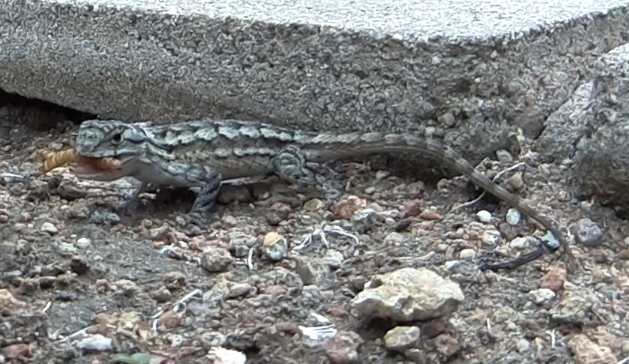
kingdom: Animalia
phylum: Chordata
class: Squamata
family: Phrynosomatidae
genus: Sceloporus
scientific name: Sceloporus occidentalis
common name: Western fence lizard
